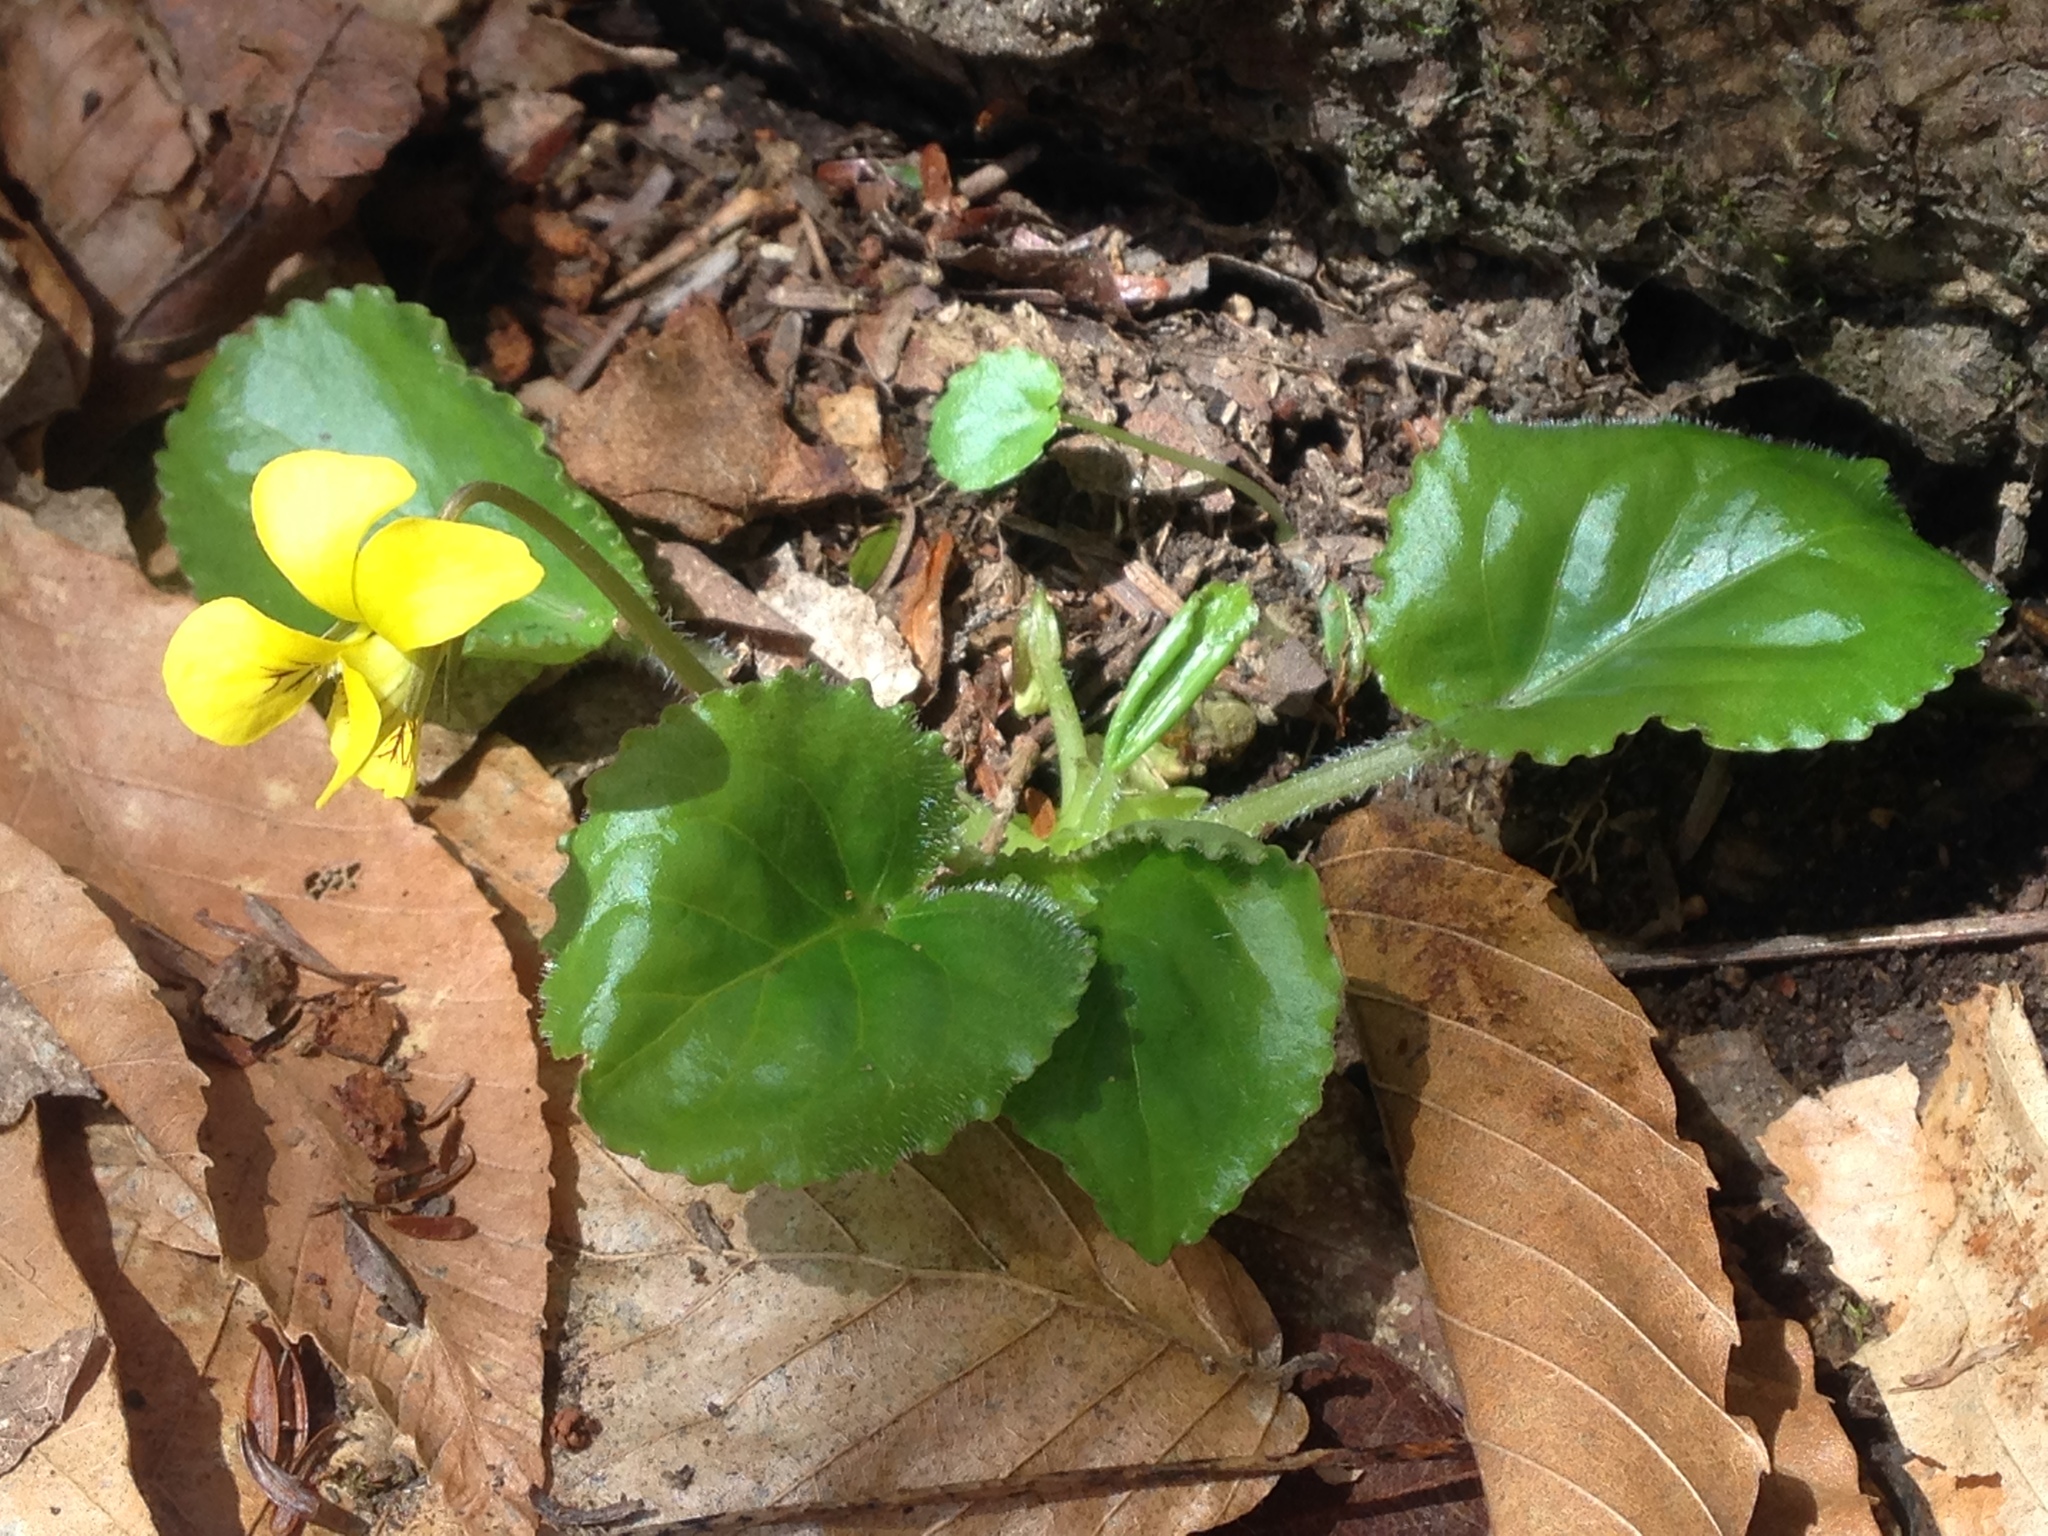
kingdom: Plantae
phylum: Tracheophyta
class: Magnoliopsida
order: Malpighiales
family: Violaceae
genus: Viola
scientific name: Viola rotundifolia
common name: Early yellow violet
